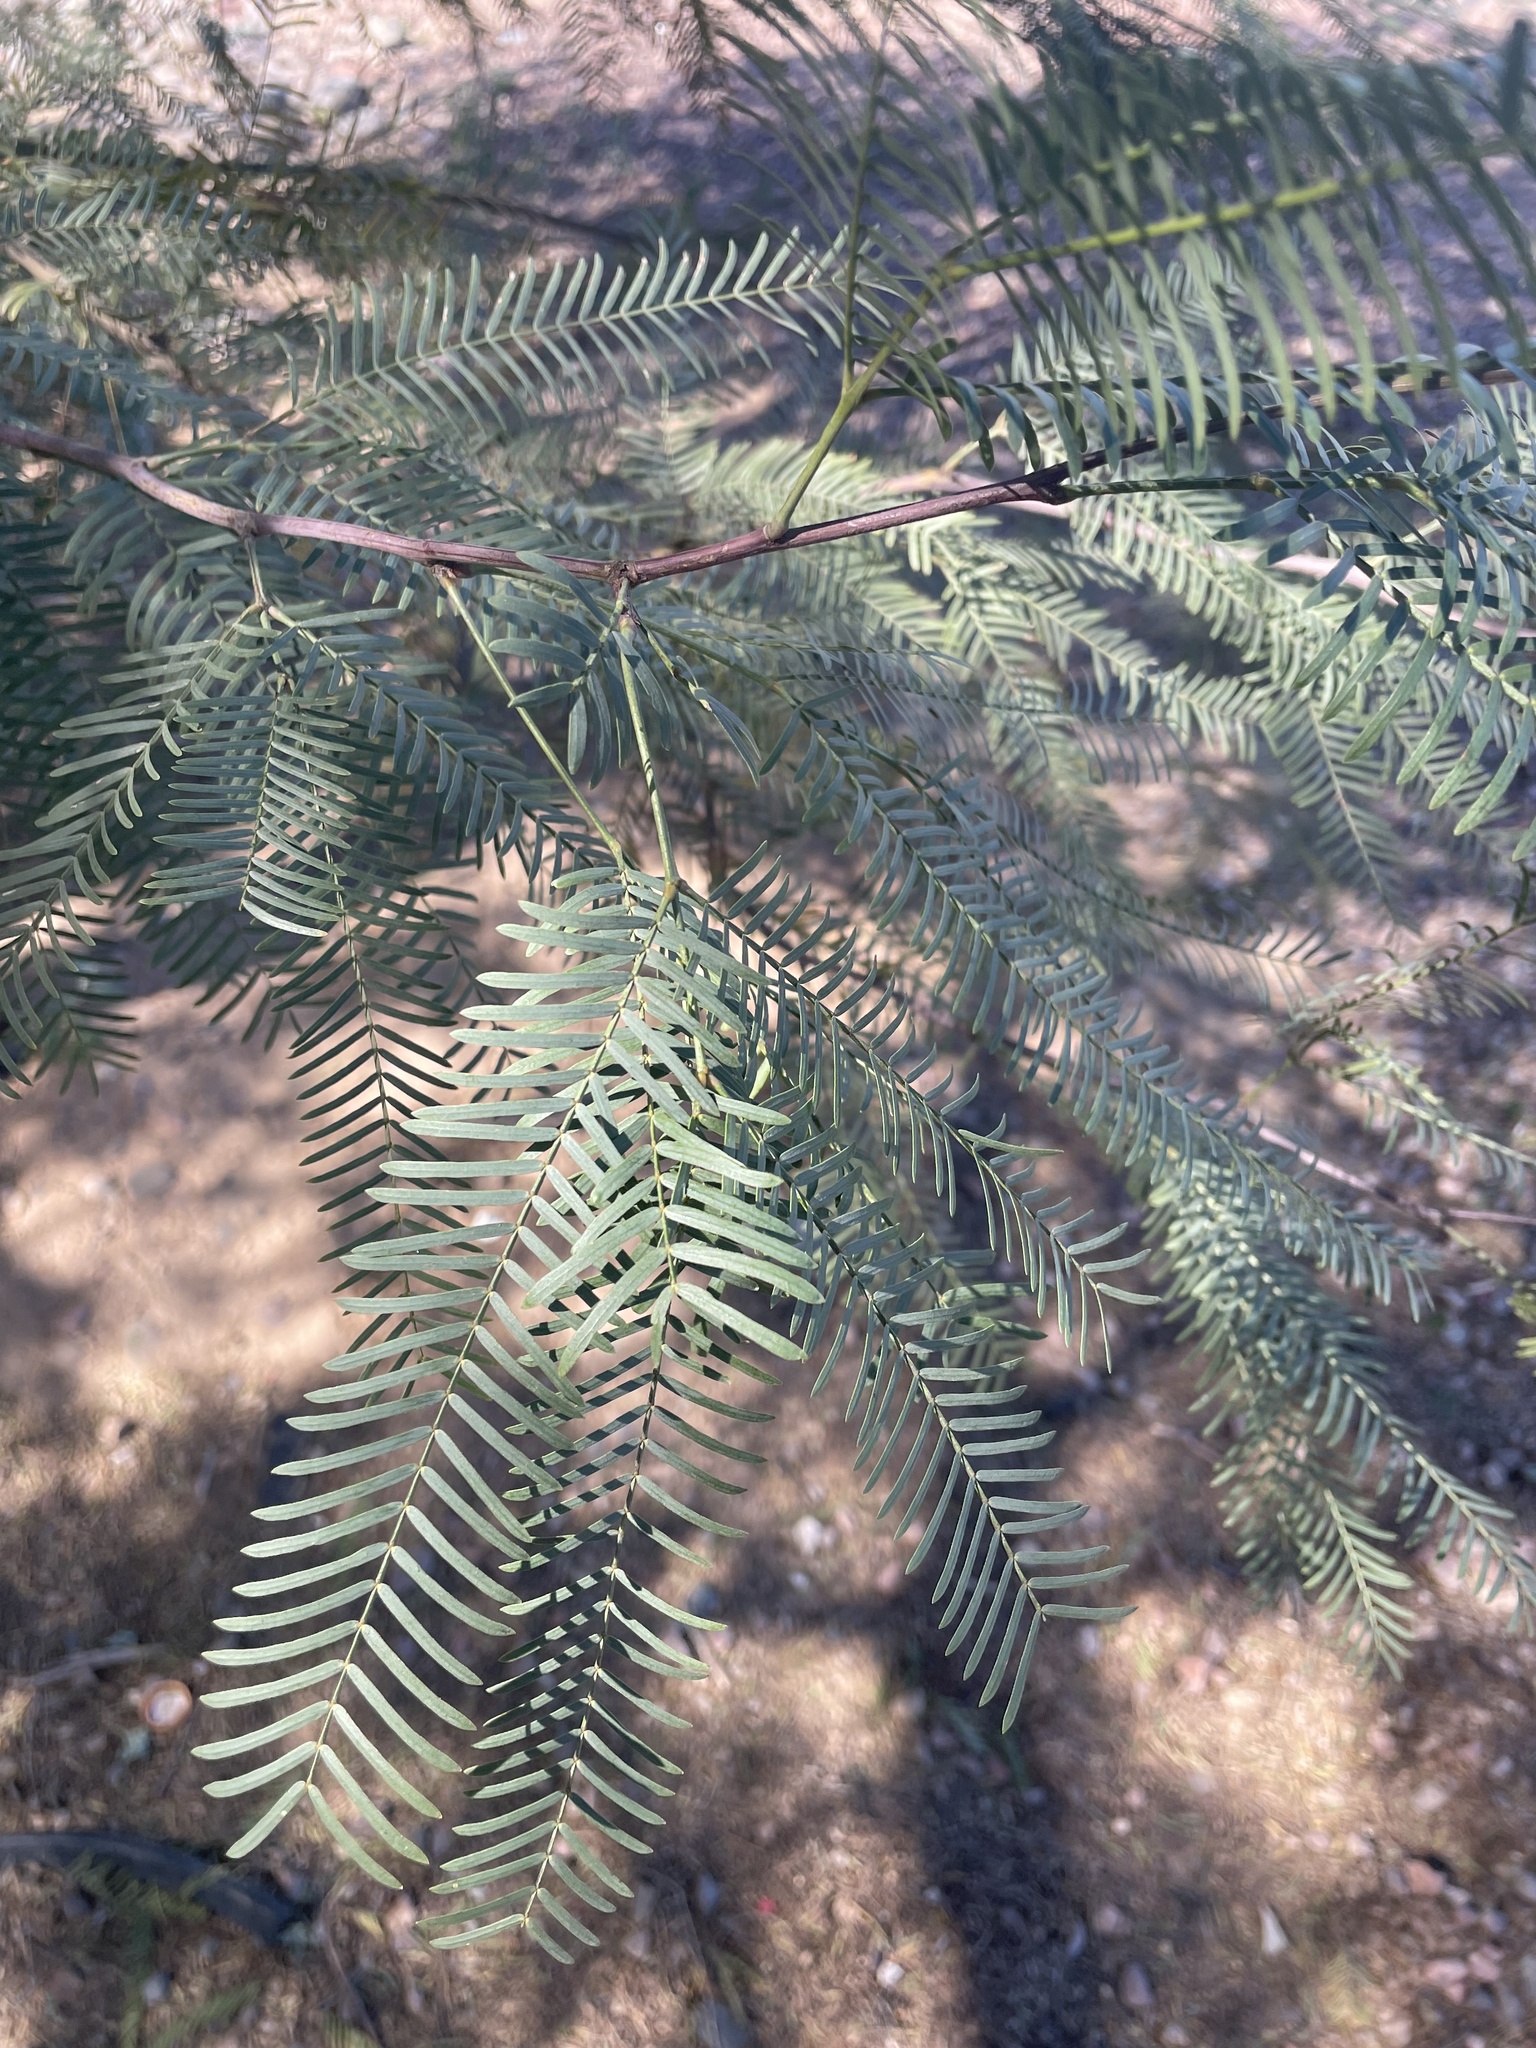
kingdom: Plantae
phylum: Tracheophyta
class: Magnoliopsida
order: Fabales
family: Fabaceae
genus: Prosopis
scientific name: Prosopis chilensis
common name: Chilean algarrobo
